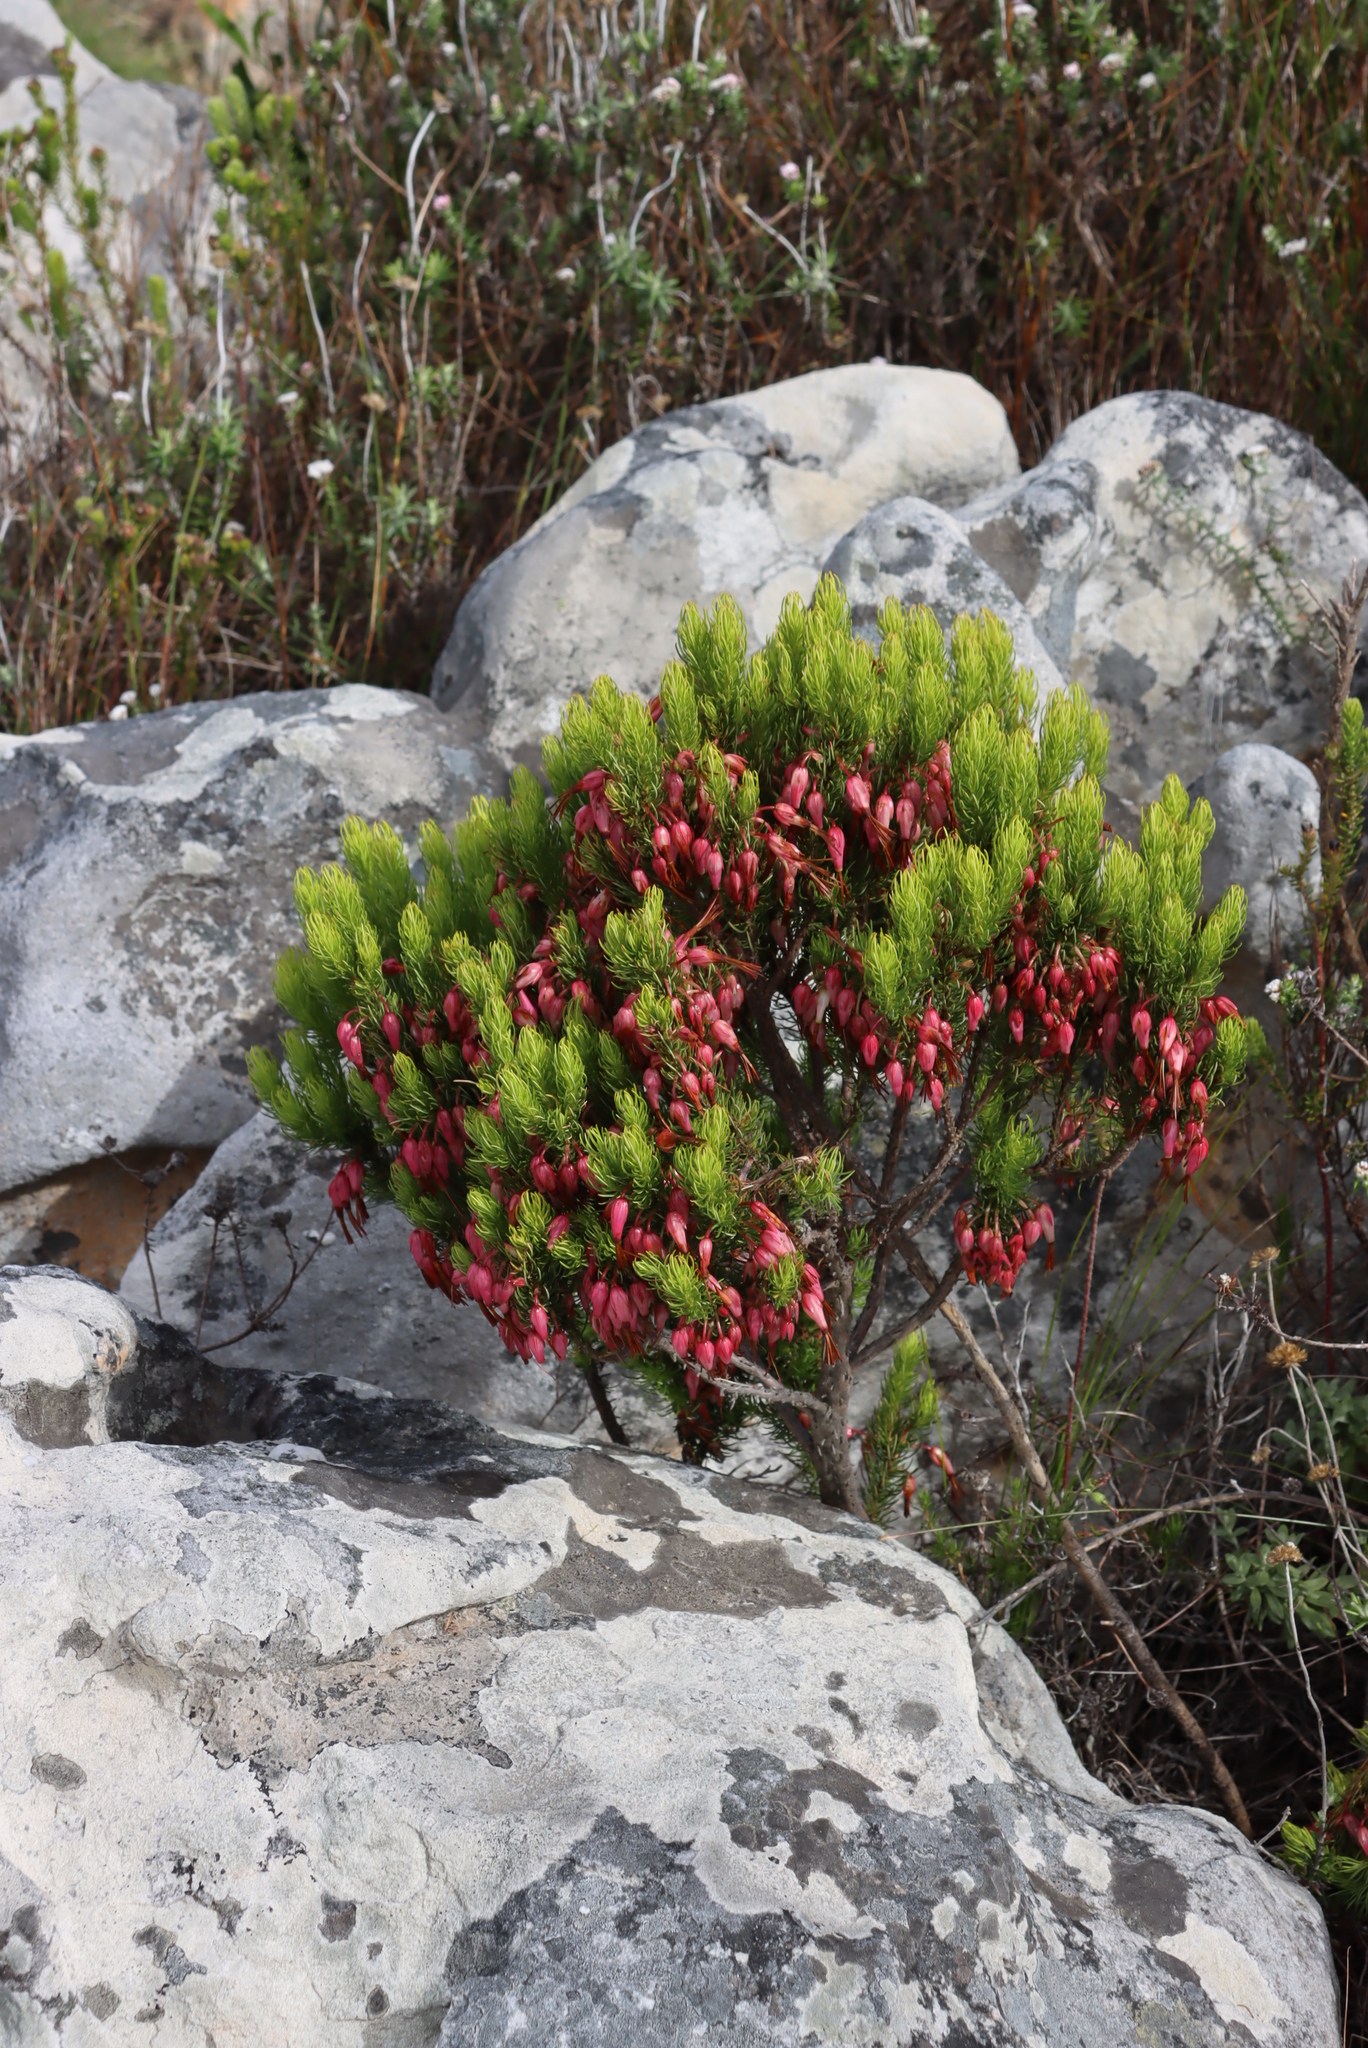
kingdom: Plantae
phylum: Tracheophyta
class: Magnoliopsida
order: Ericales
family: Ericaceae
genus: Erica
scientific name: Erica plukenetii
